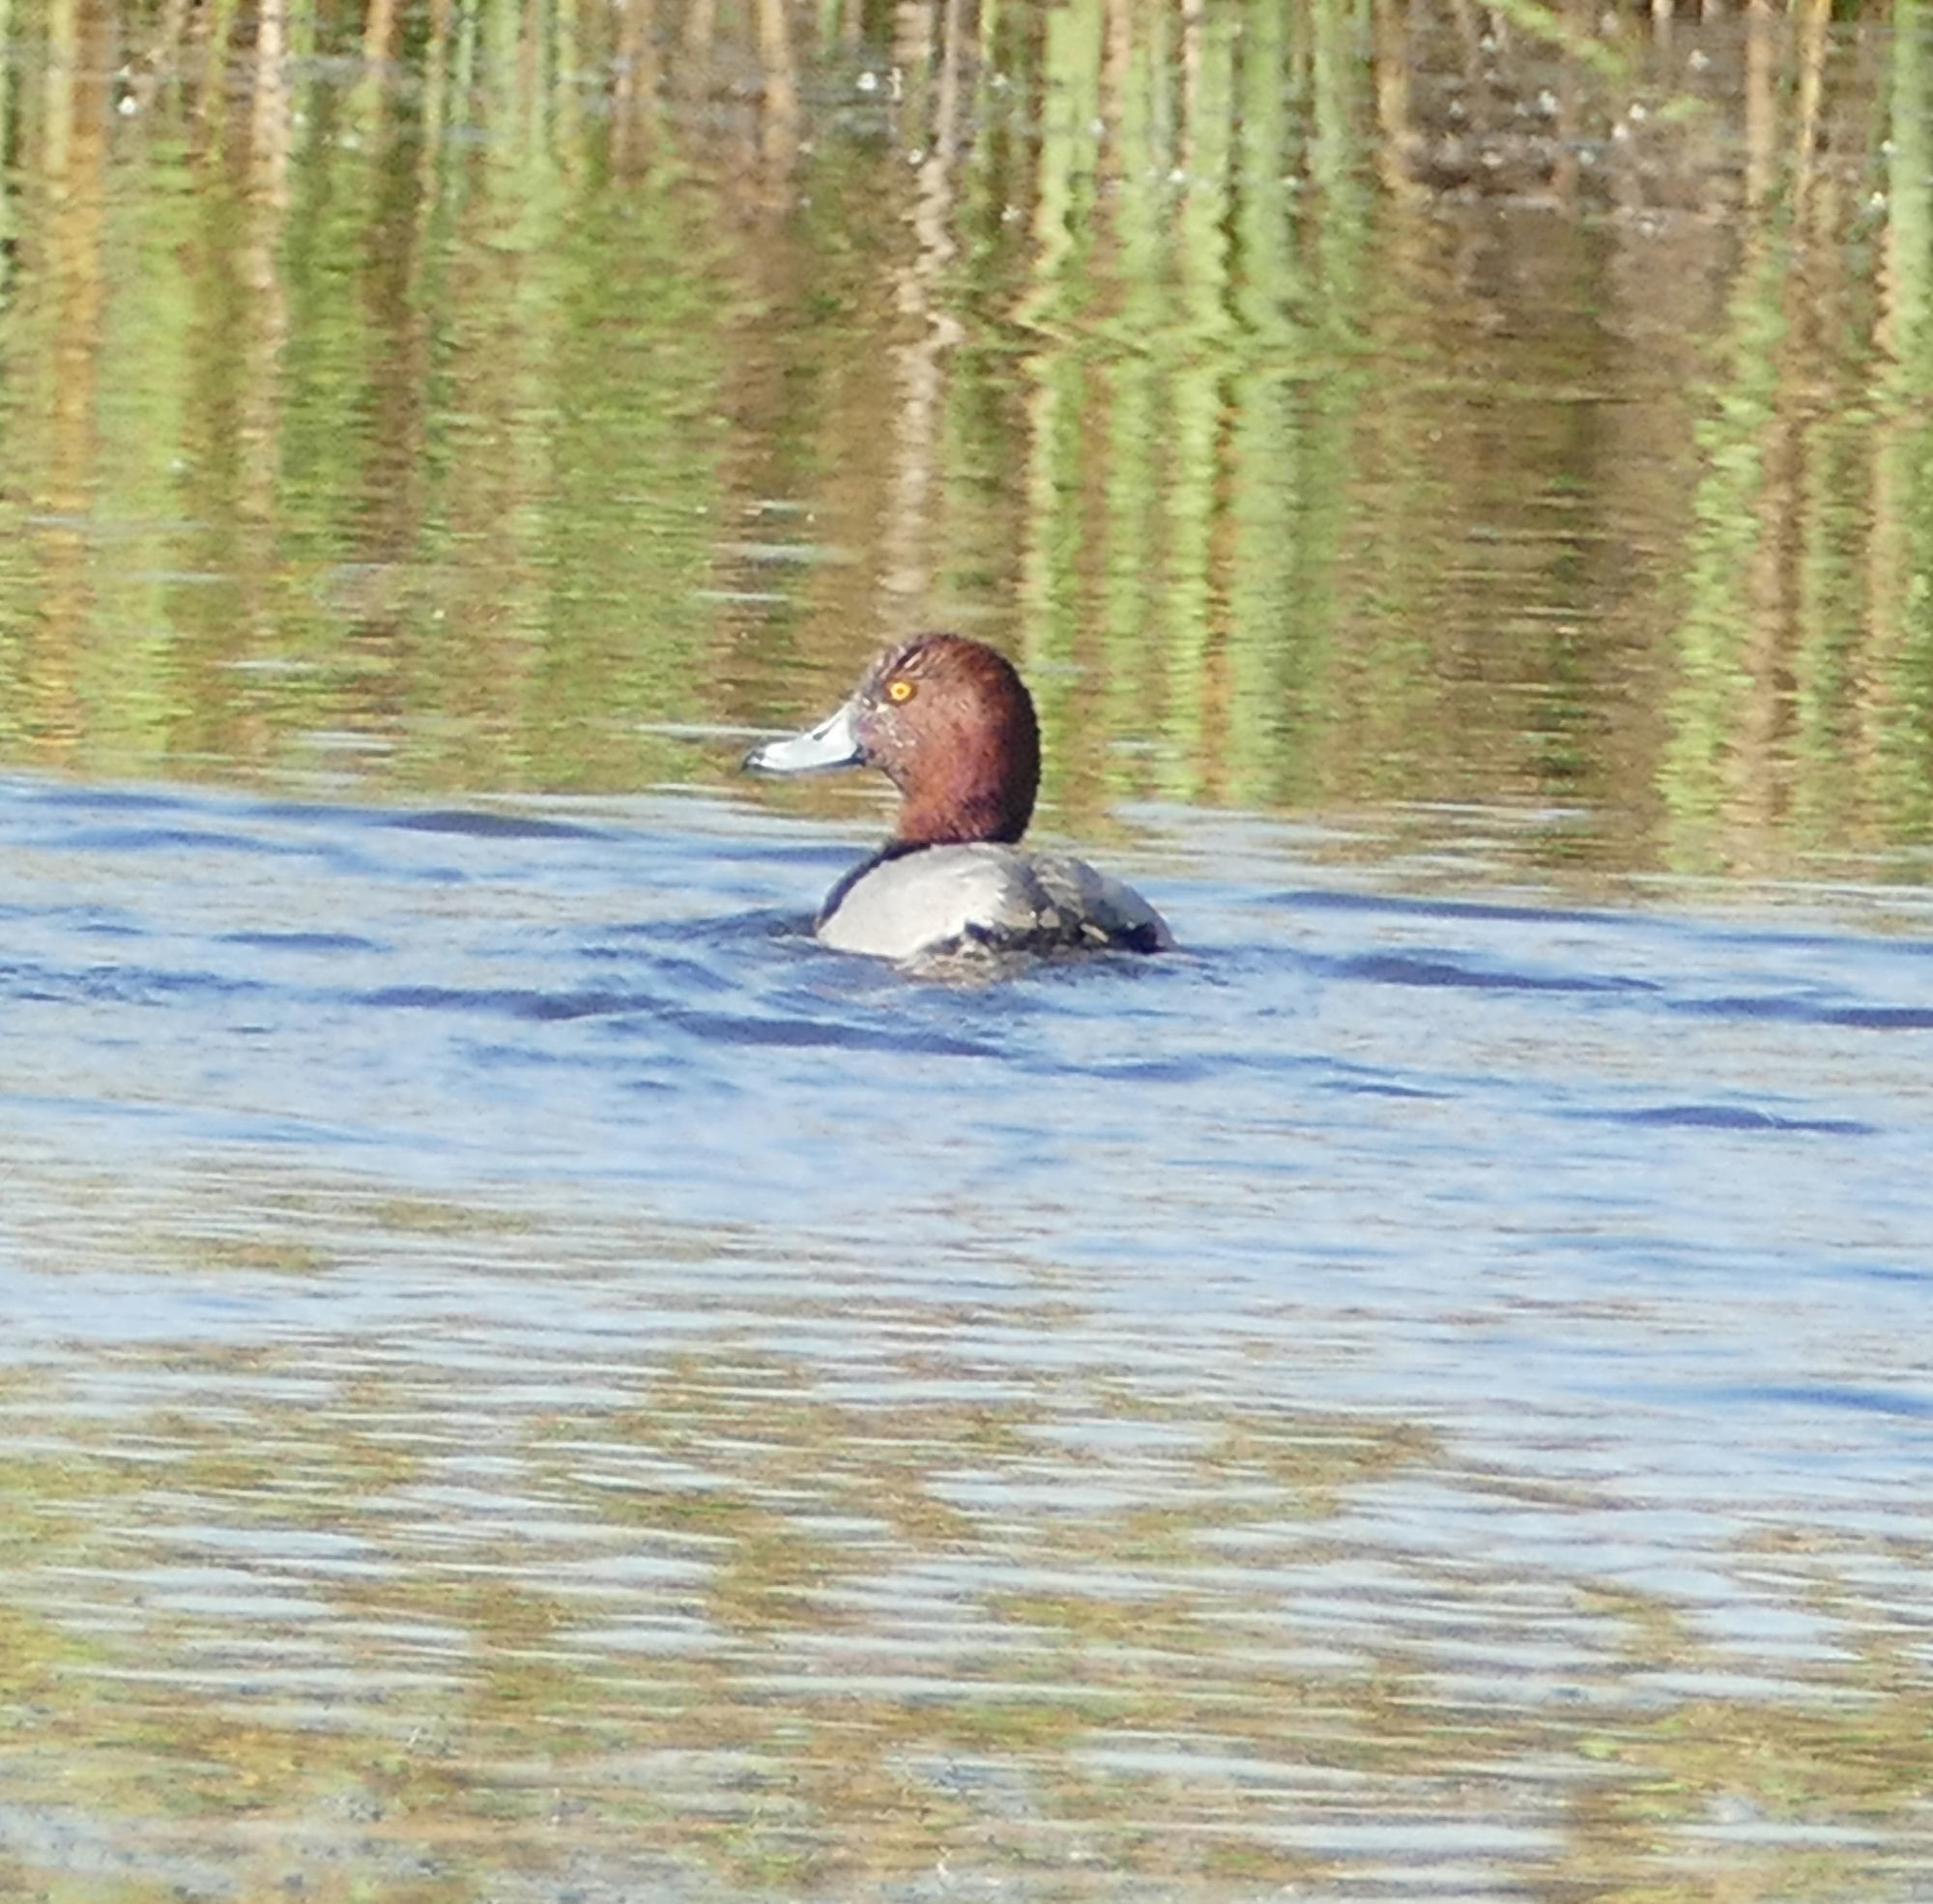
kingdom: Animalia
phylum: Chordata
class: Aves
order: Anseriformes
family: Anatidae
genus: Aythya
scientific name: Aythya americana
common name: Redhead
